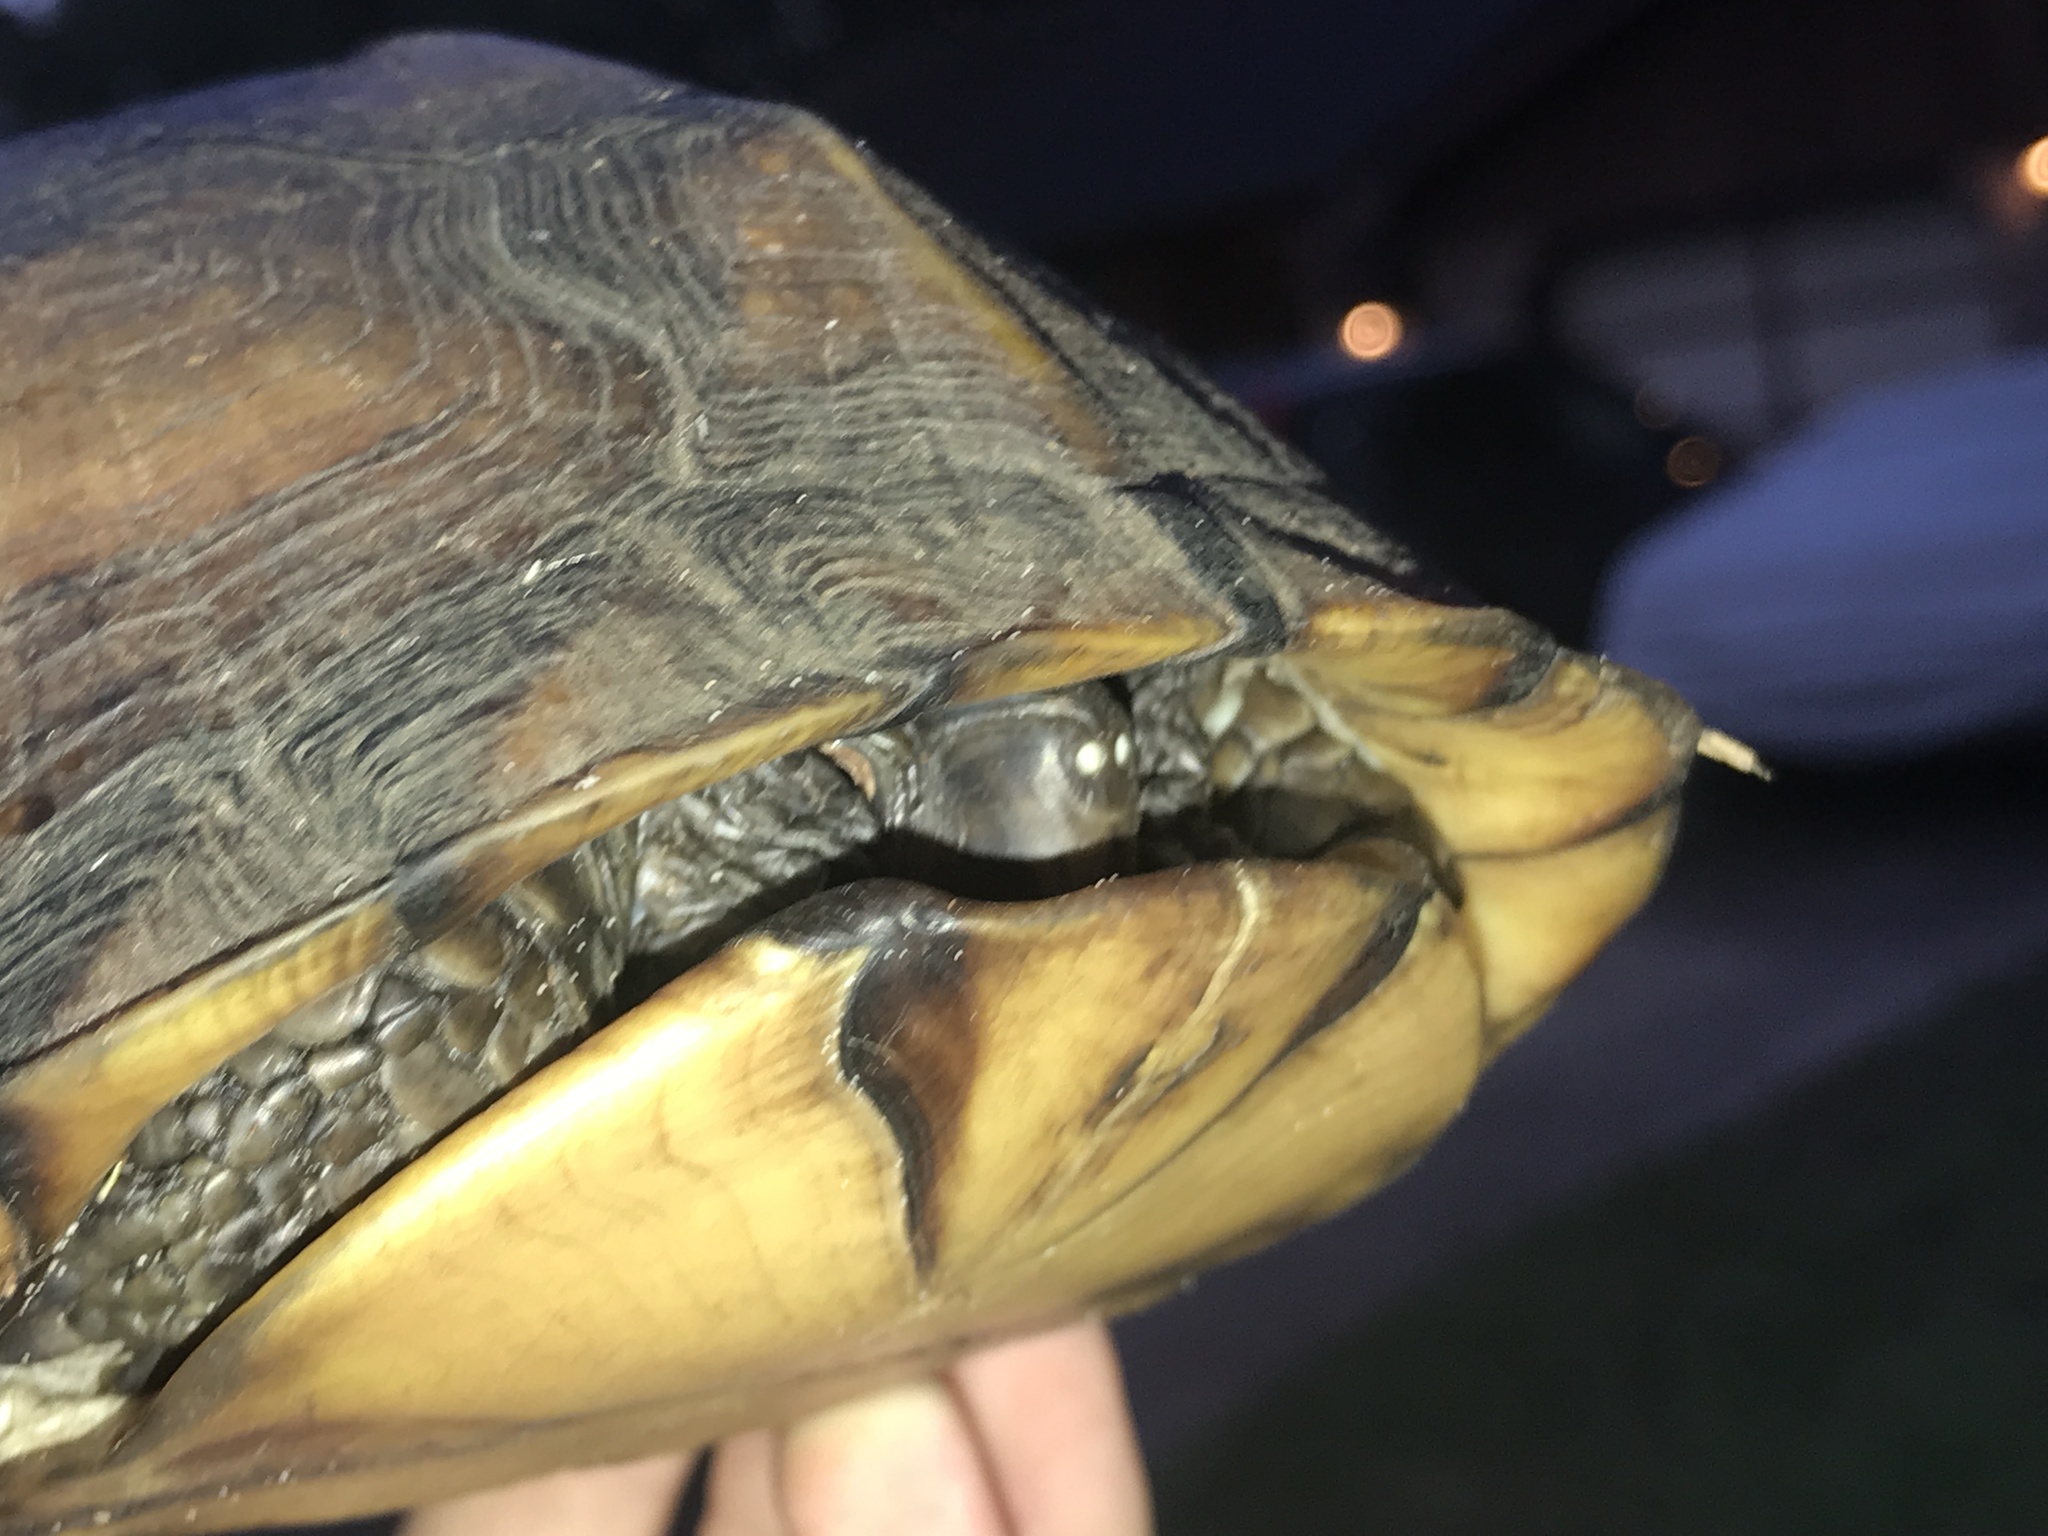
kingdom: Animalia
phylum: Chordata
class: Testudines
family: Emydidae
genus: Terrapene
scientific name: Terrapene carolina
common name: Common box turtle
